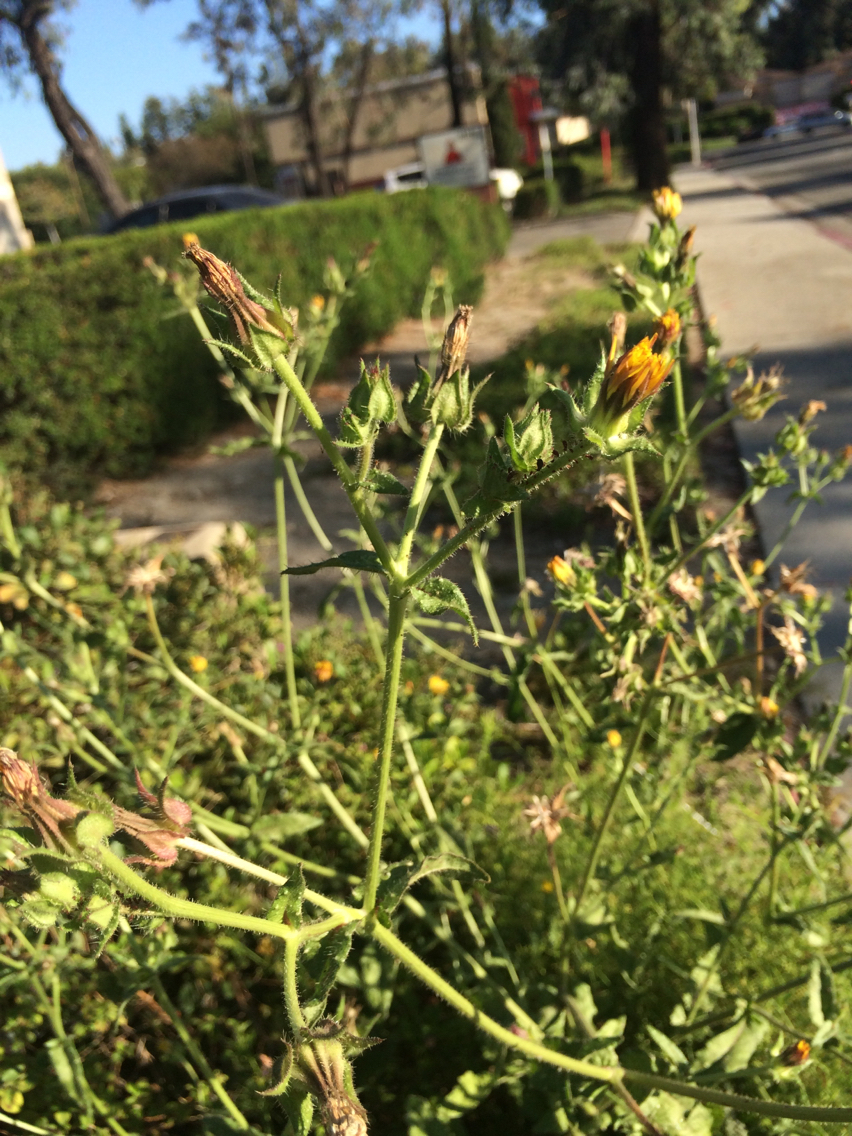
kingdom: Plantae
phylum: Tracheophyta
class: Magnoliopsida
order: Asterales
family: Asteraceae
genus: Helminthotheca
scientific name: Helminthotheca echioides
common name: Ox-tongue
